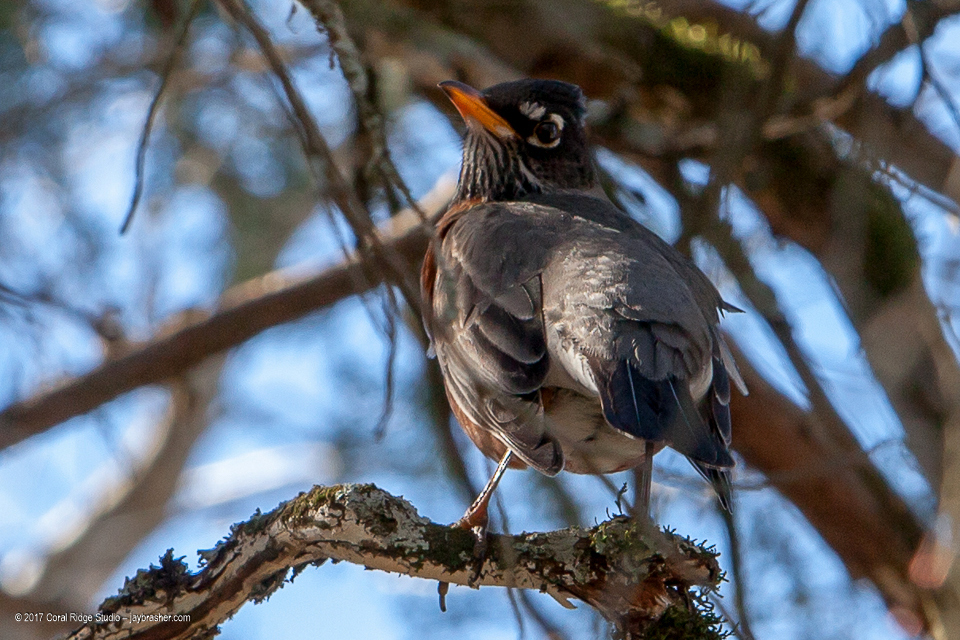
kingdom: Animalia
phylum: Chordata
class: Aves
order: Passeriformes
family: Turdidae
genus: Turdus
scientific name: Turdus migratorius
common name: American robin
